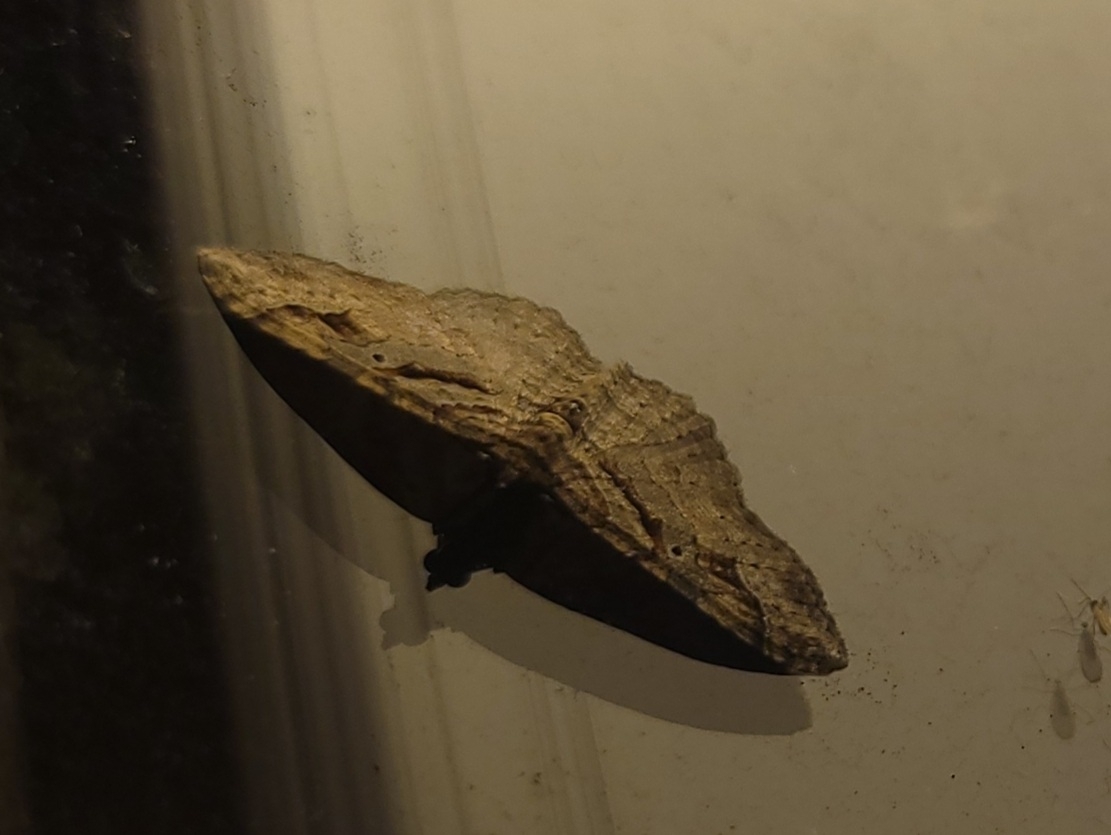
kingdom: Animalia
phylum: Arthropoda
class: Insecta
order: Lepidoptera
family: Geometridae
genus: Costaconvexa
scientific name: Costaconvexa centrostrigaria
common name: Bent-line carpet
